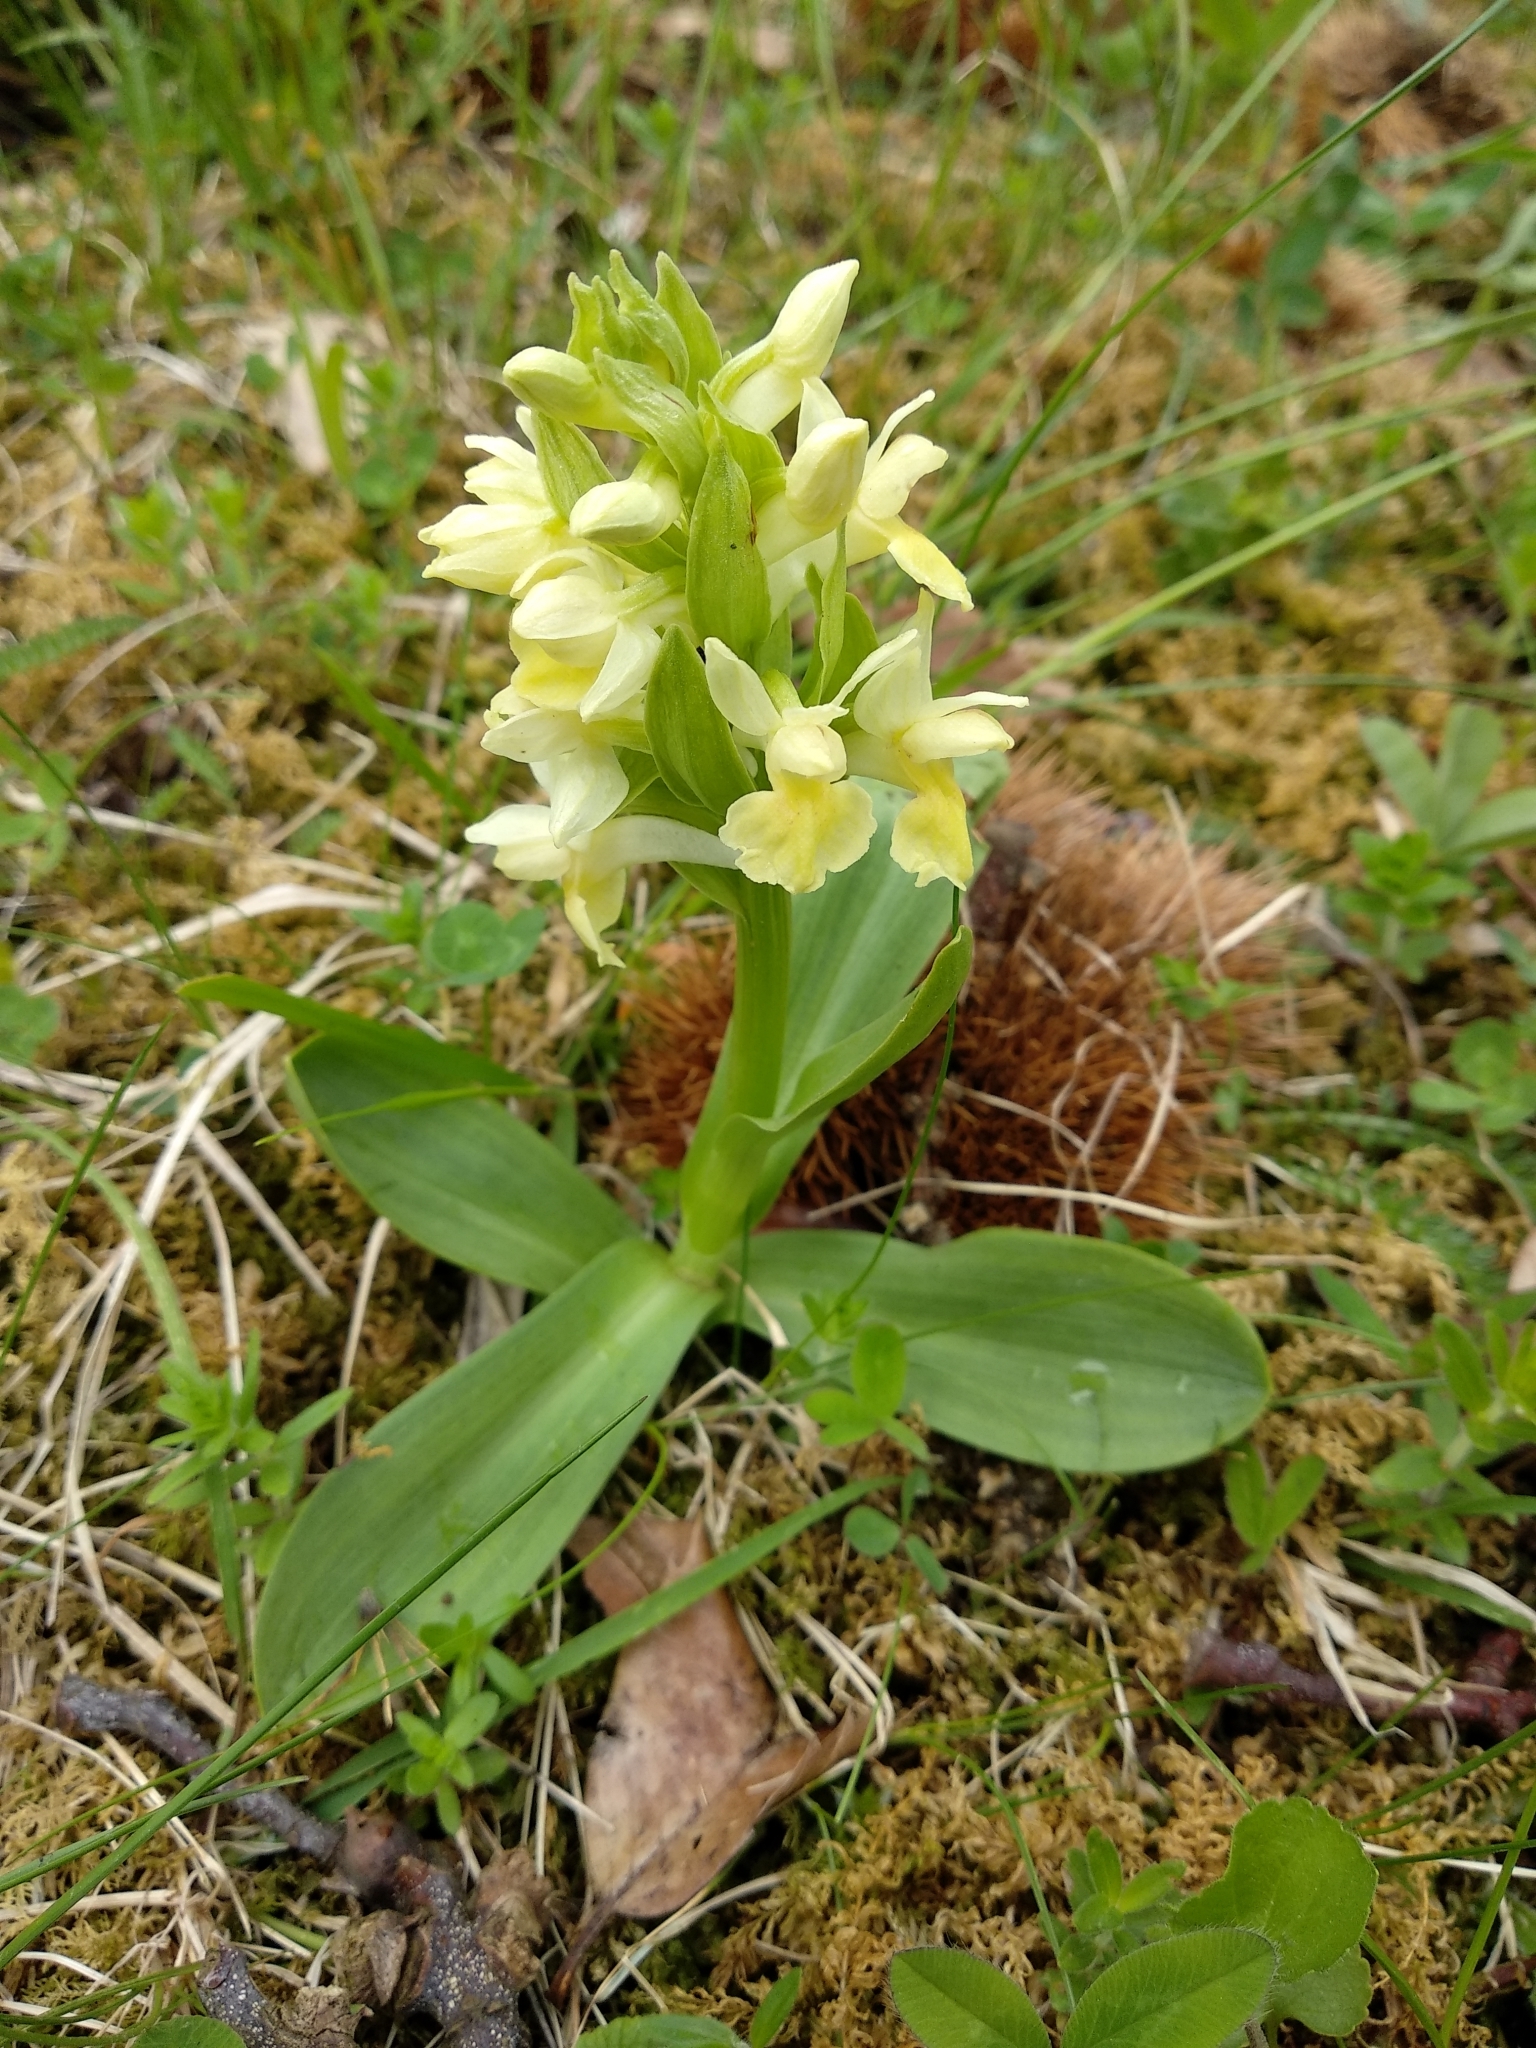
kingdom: Plantae
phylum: Tracheophyta
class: Liliopsida
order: Asparagales
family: Orchidaceae
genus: Dactylorhiza
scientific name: Dactylorhiza sambucina
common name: Elder-flowered orchid
